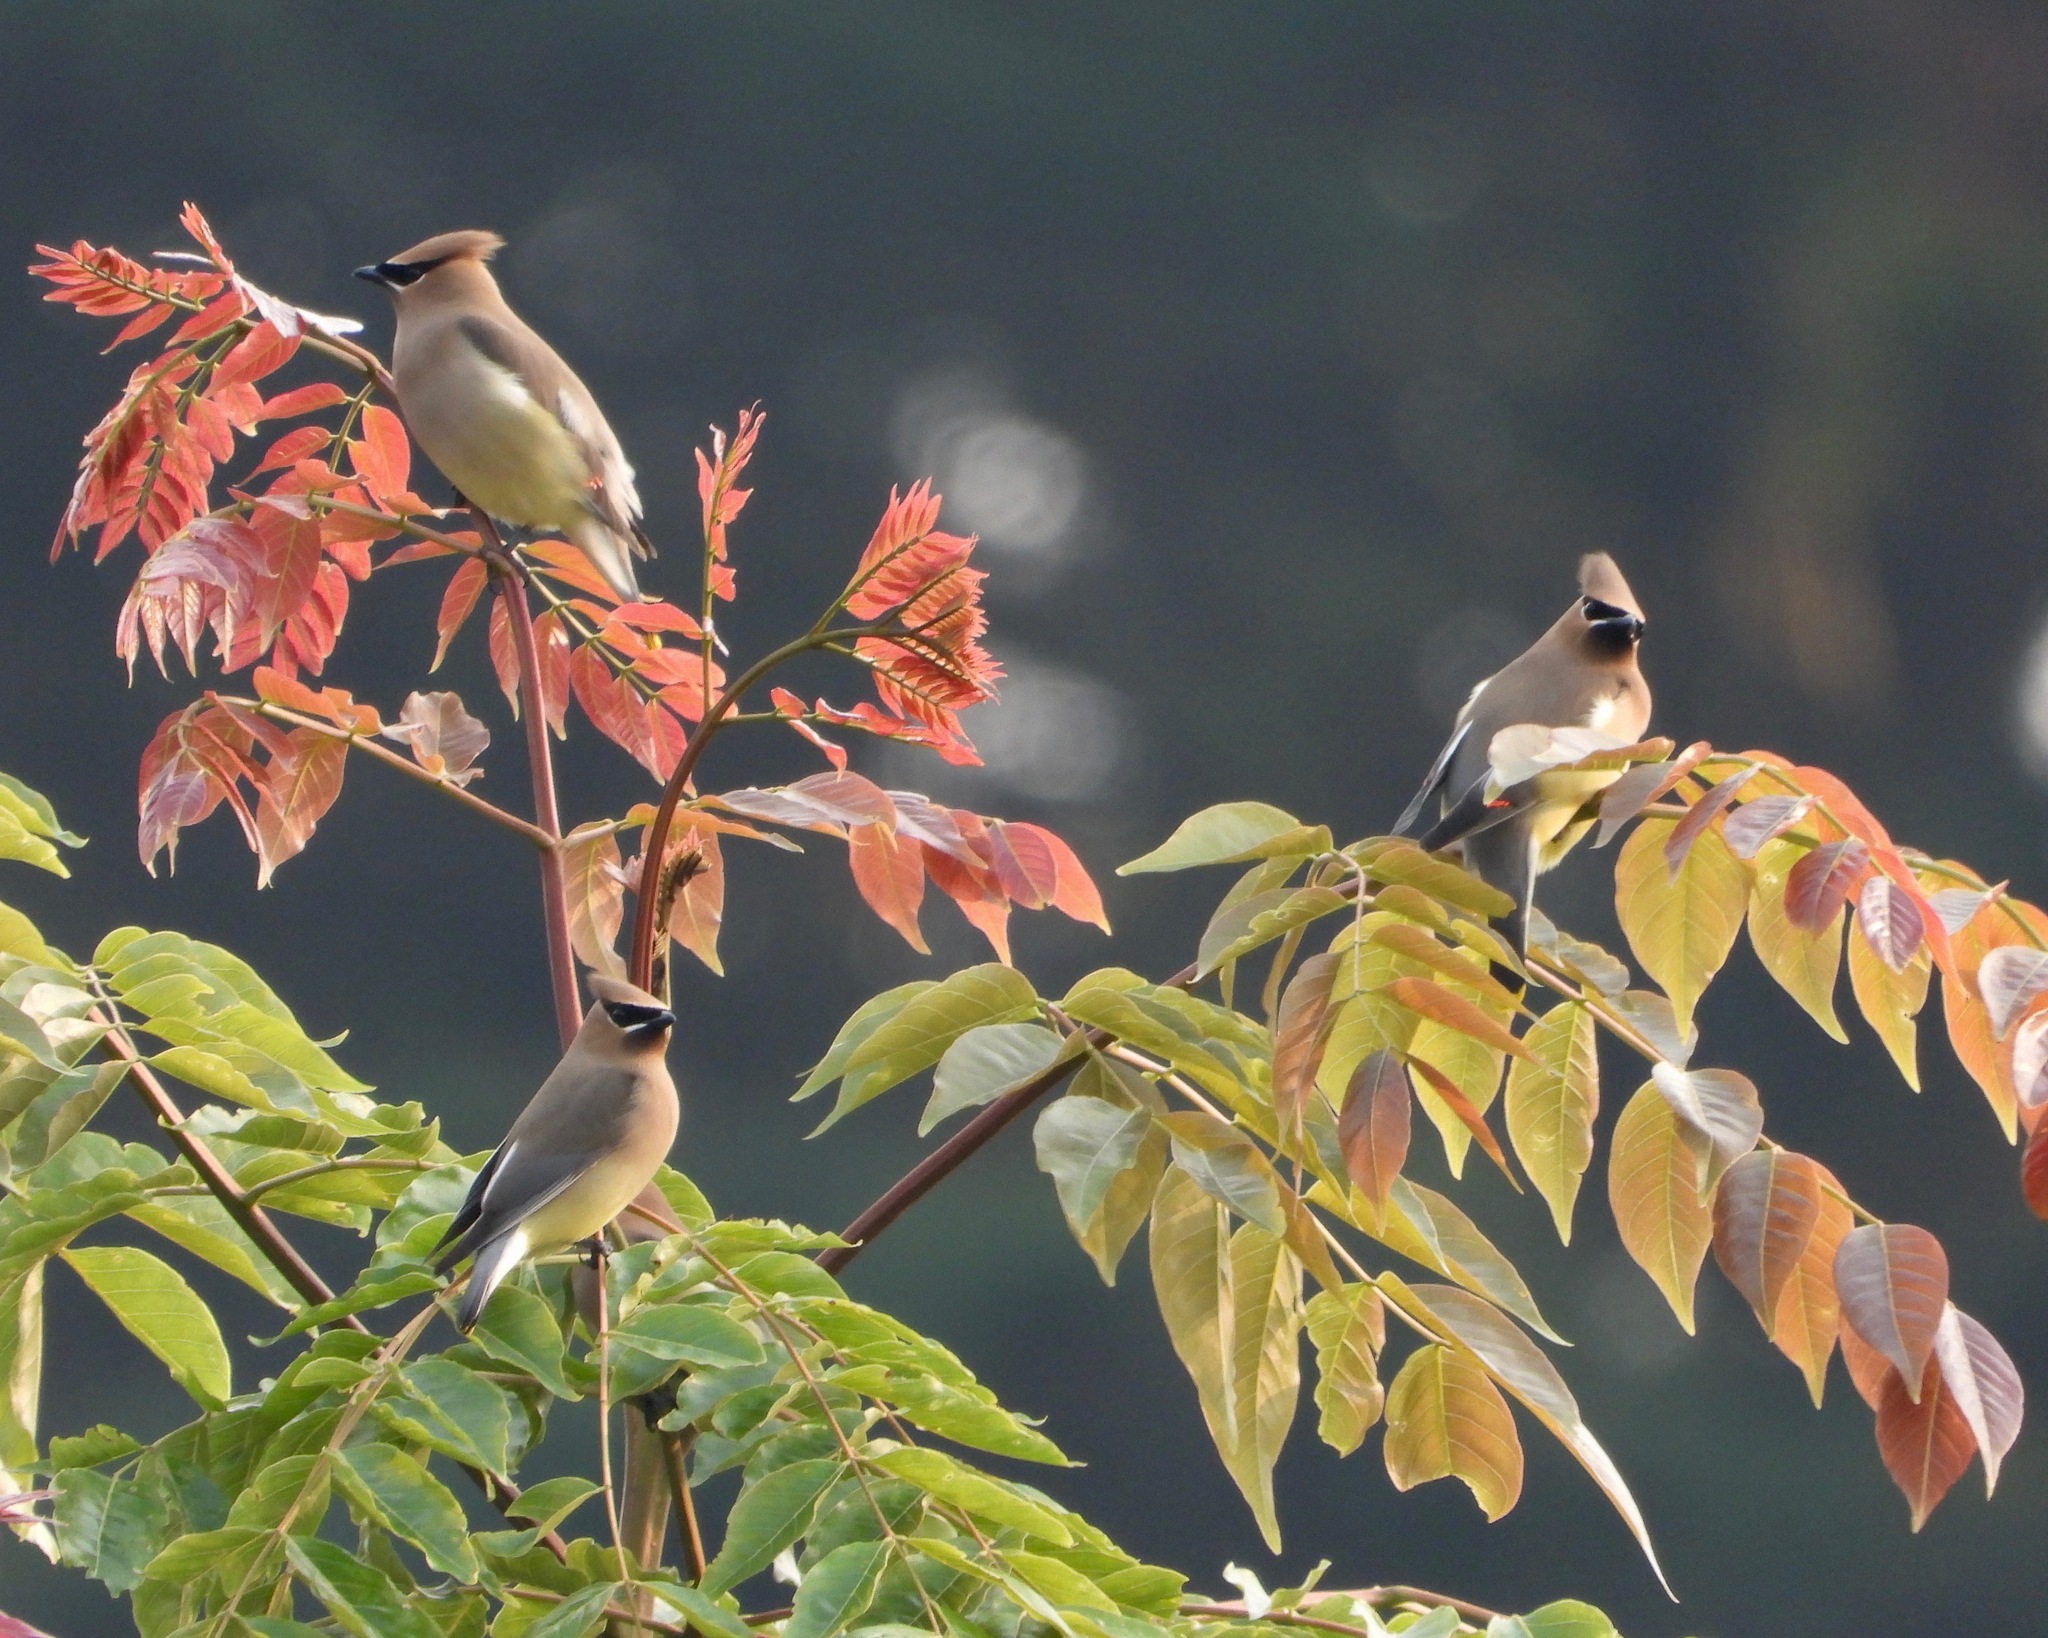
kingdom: Animalia
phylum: Chordata
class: Aves
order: Passeriformes
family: Bombycillidae
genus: Bombycilla
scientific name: Bombycilla cedrorum
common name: Cedar waxwing
